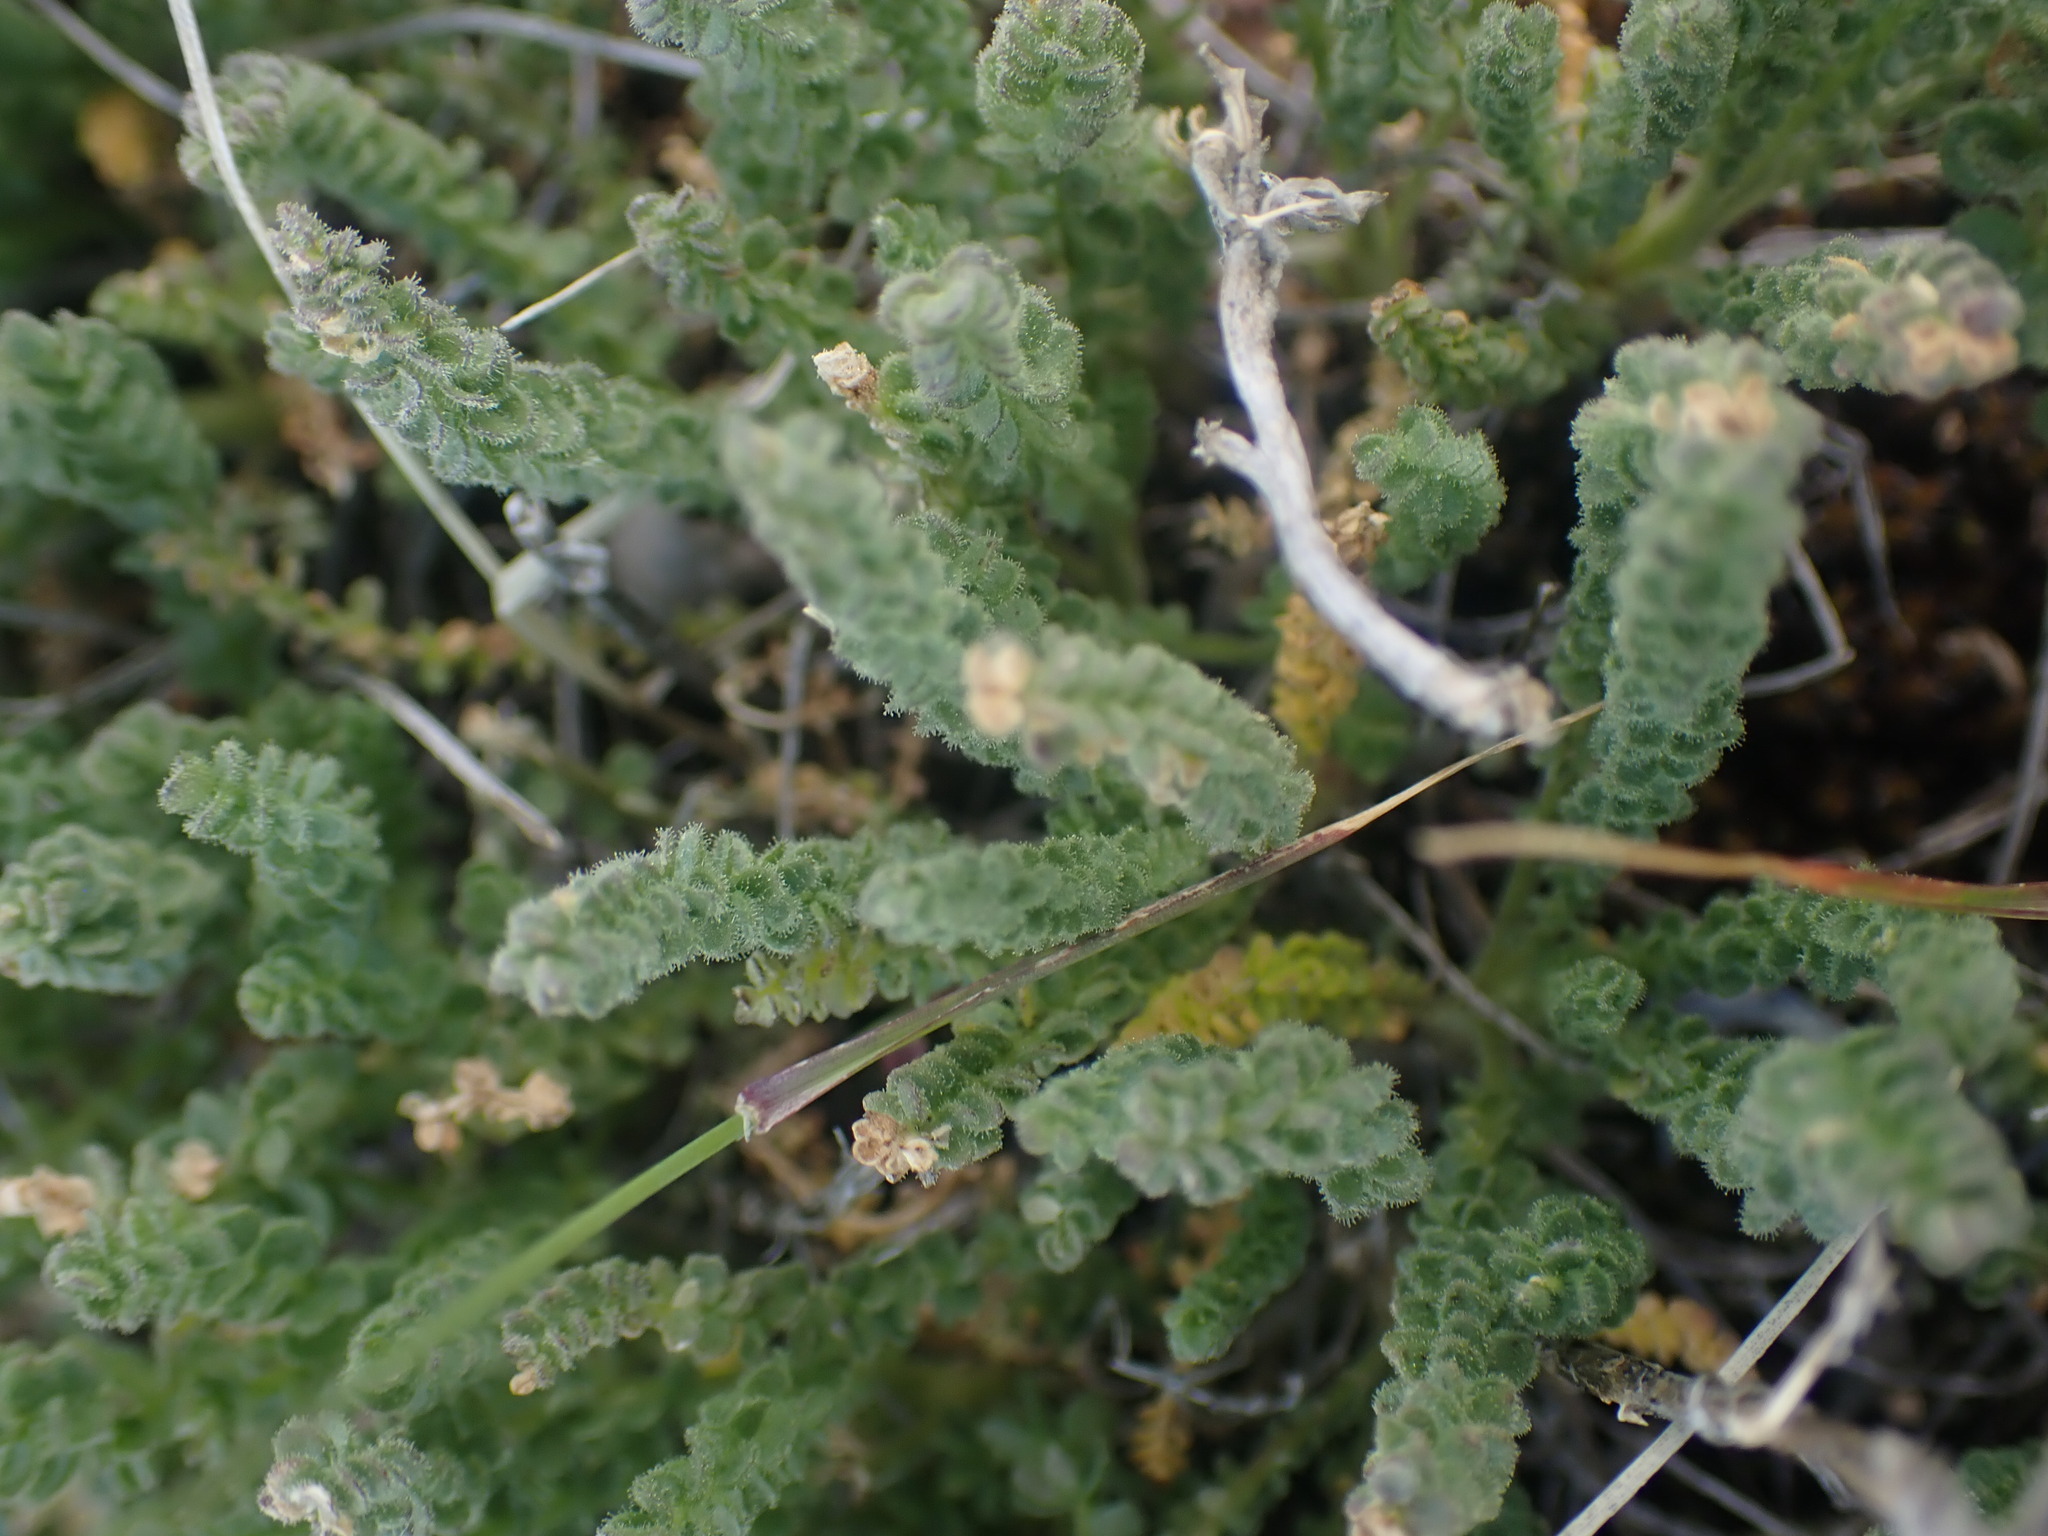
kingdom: Plantae
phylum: Tracheophyta
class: Magnoliopsida
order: Ericales
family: Polemoniaceae
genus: Polemonium
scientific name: Polemonium viscosum
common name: Skunk jacob's-ladder
